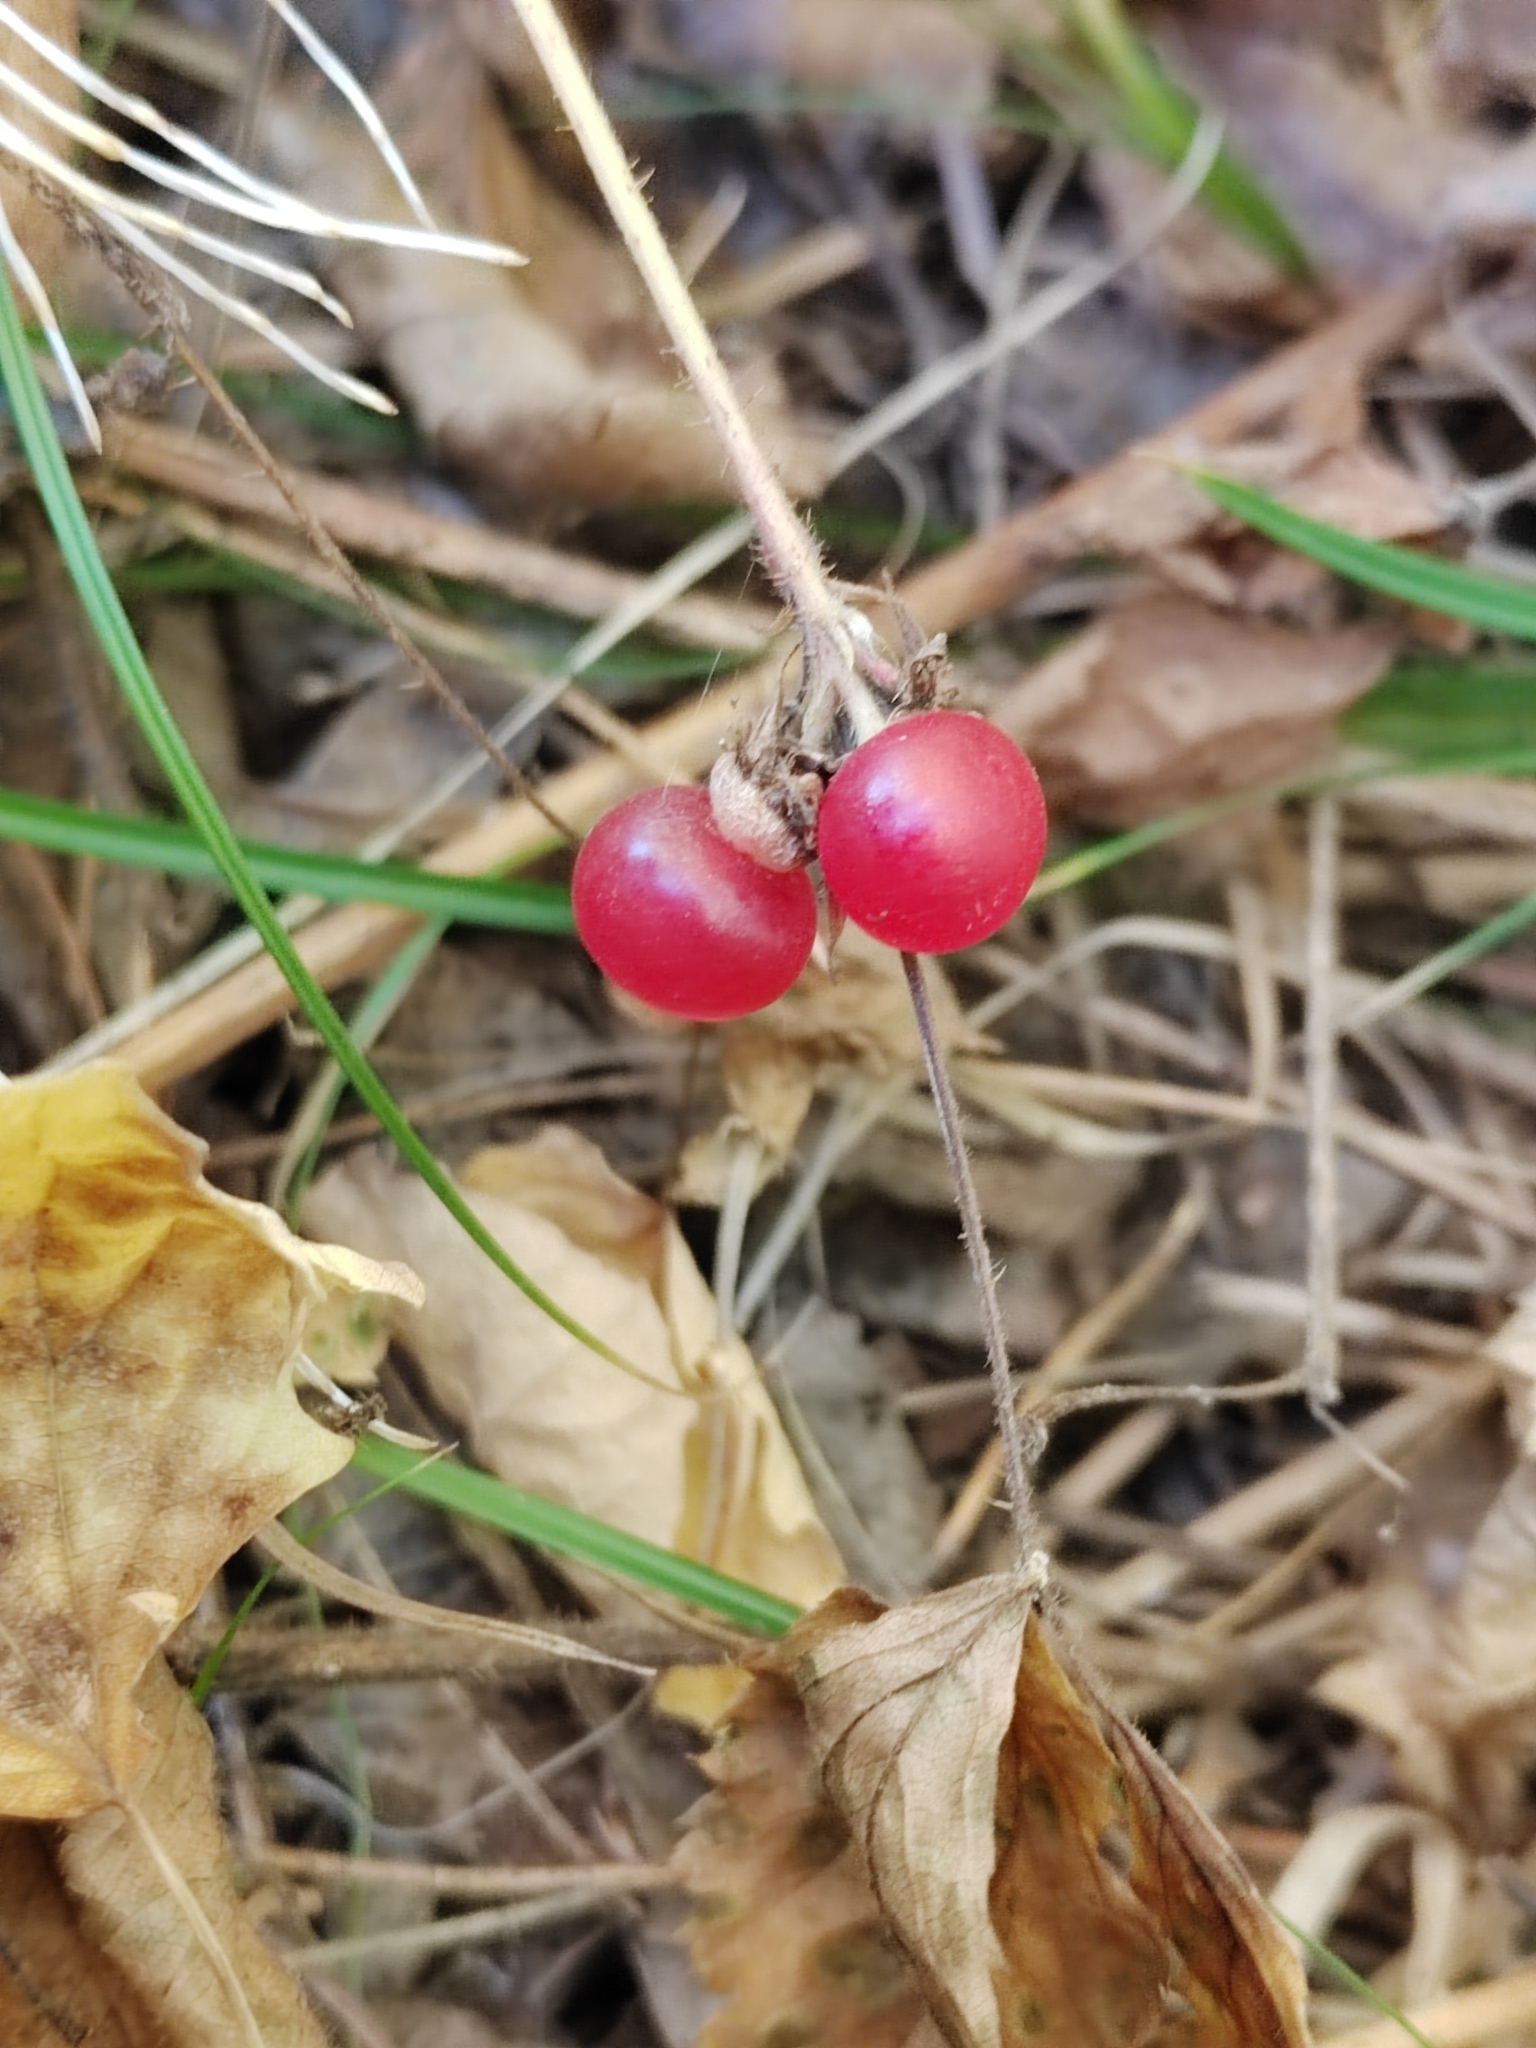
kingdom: Plantae
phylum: Tracheophyta
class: Magnoliopsida
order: Rosales
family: Rosaceae
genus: Rubus
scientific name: Rubus saxatilis
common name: Stone bramble
